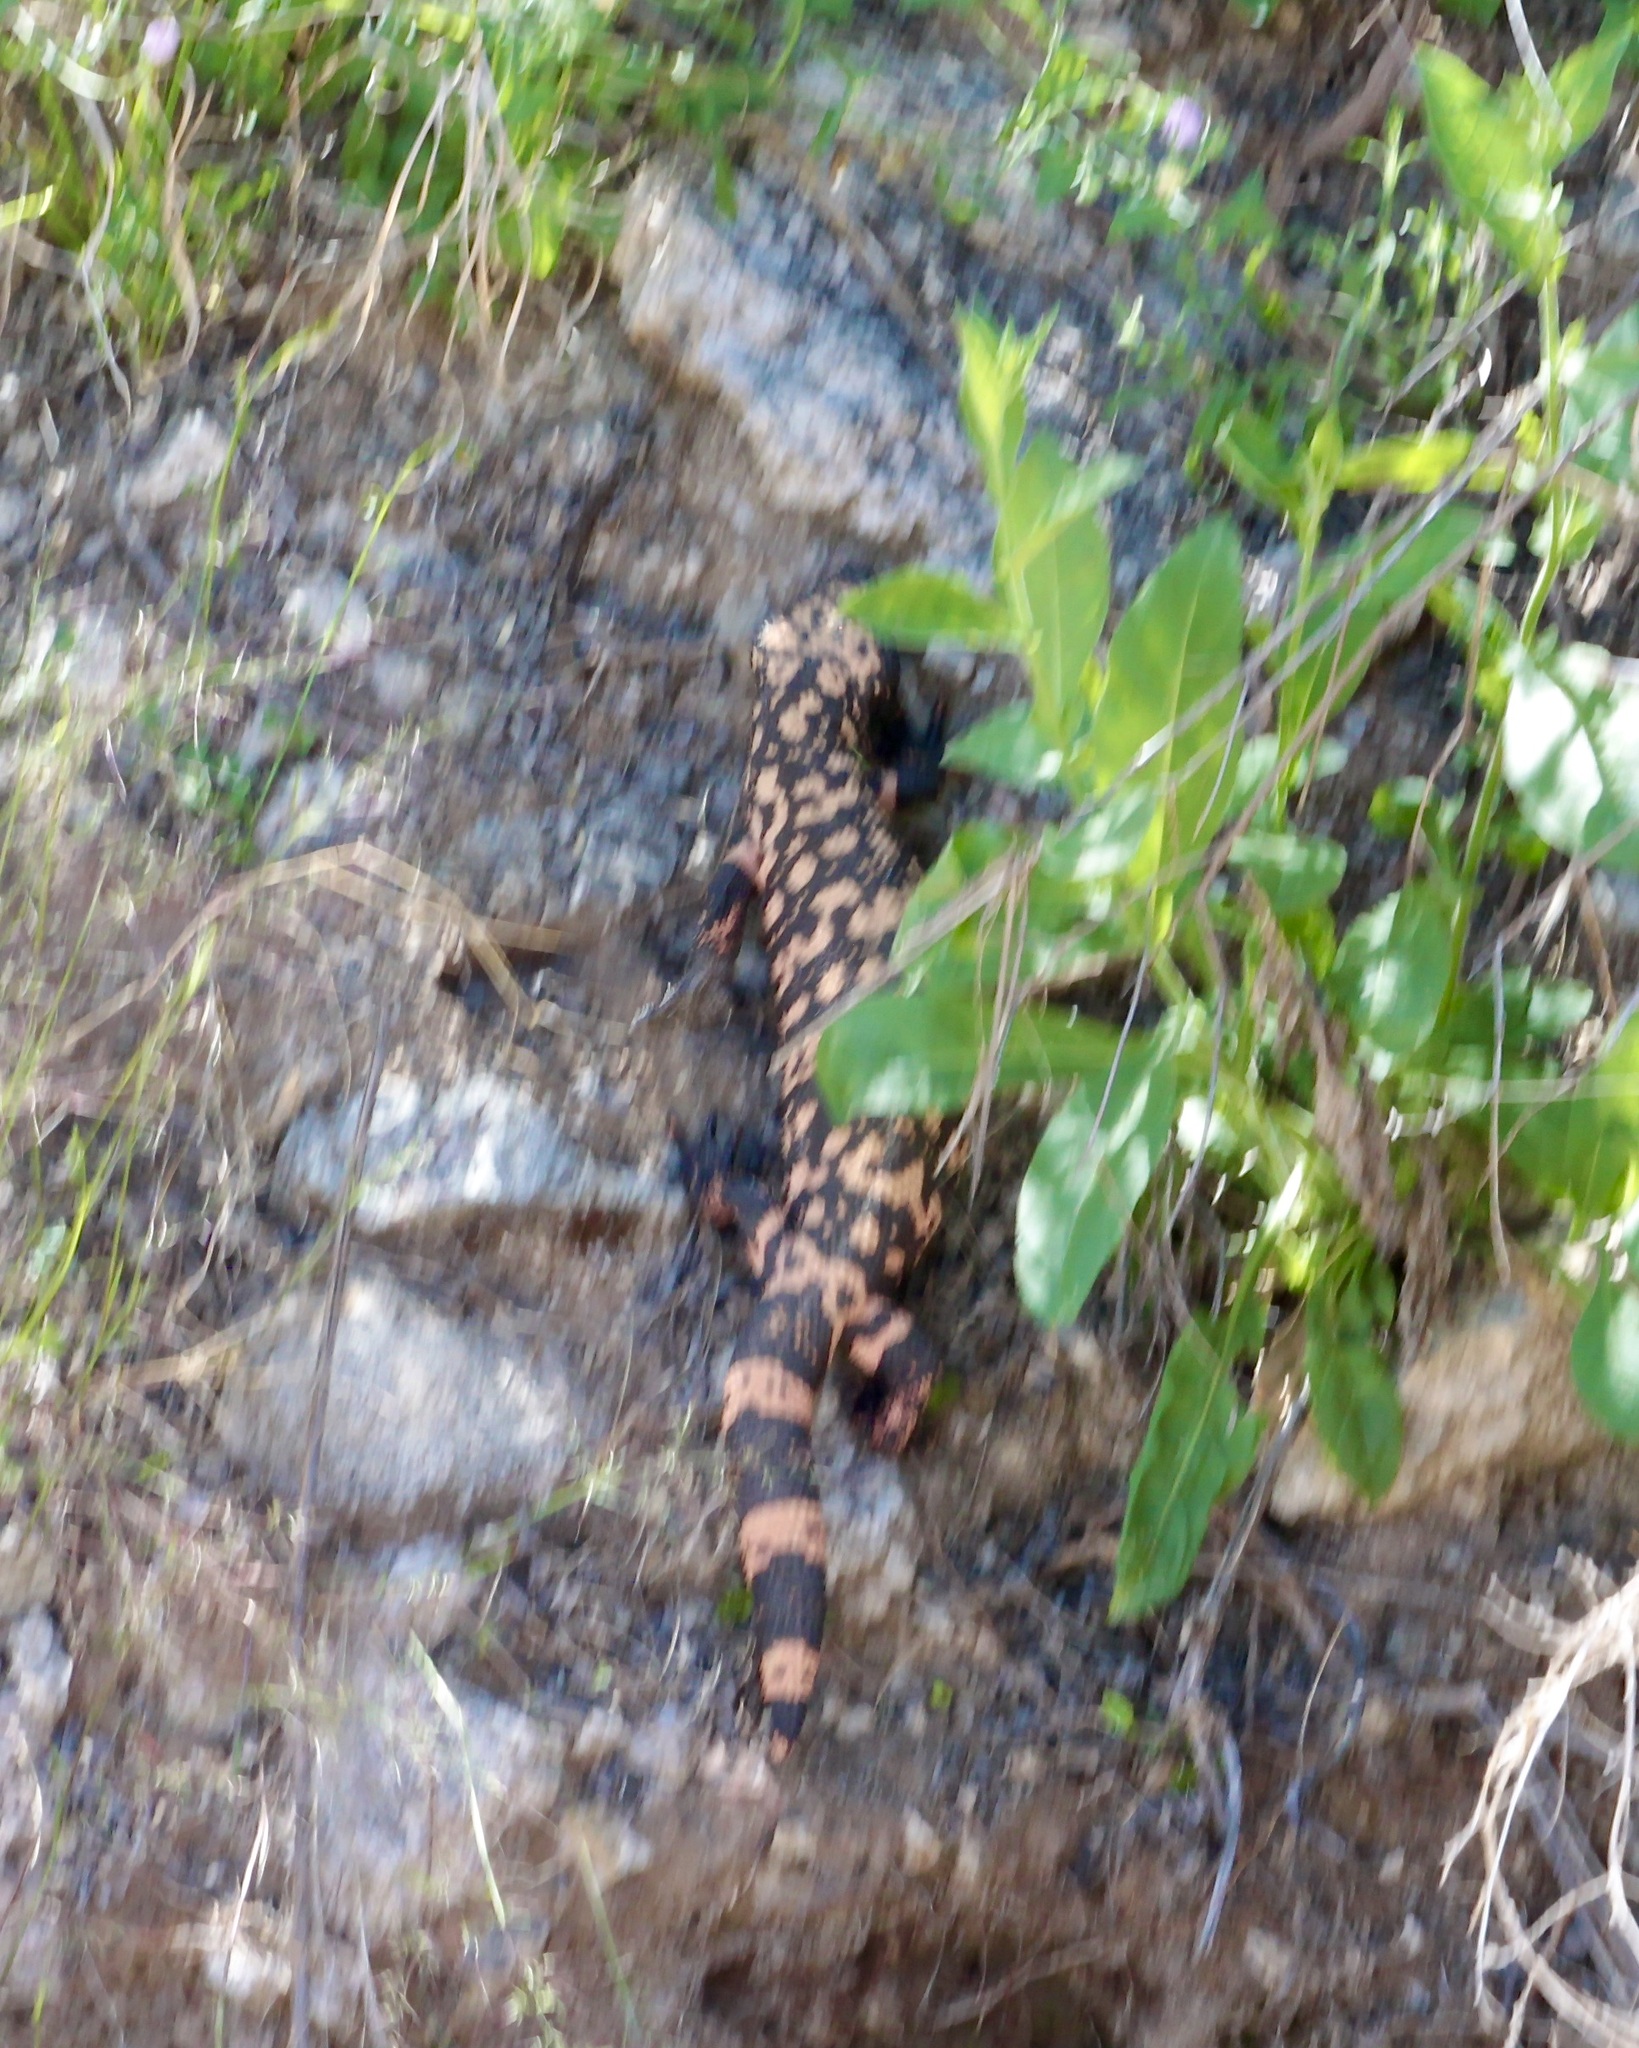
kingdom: Animalia
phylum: Chordata
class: Squamata
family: Helodermatidae
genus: Heloderma
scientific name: Heloderma suspectum
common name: Gila monster
